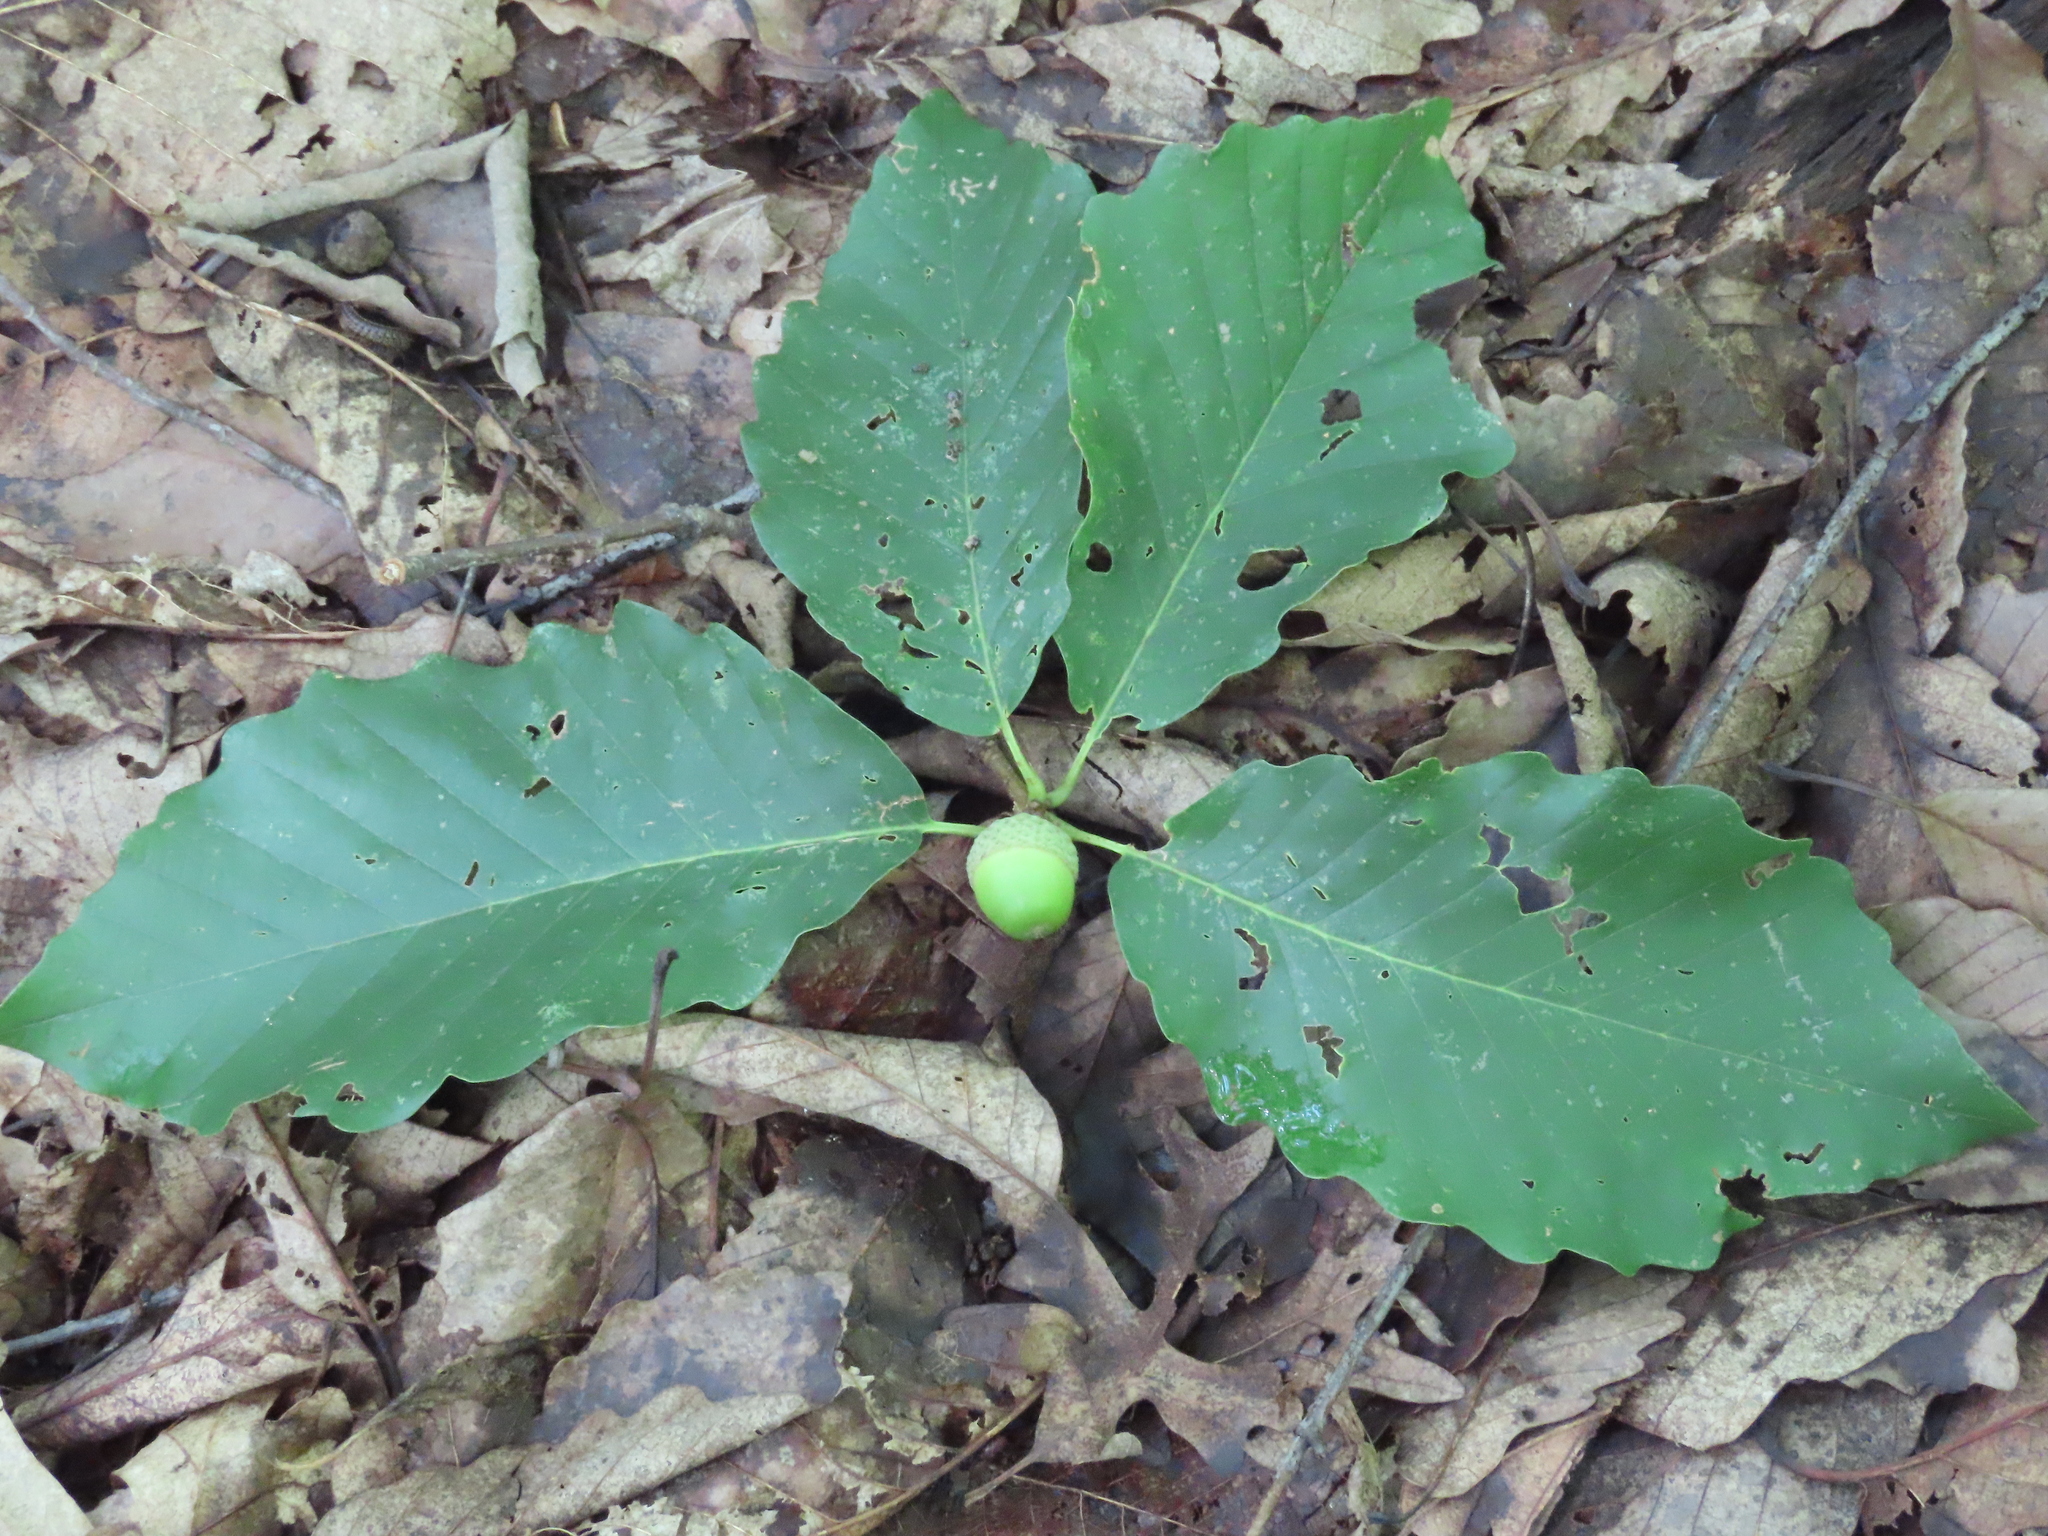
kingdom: Plantae
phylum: Tracheophyta
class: Magnoliopsida
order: Fagales
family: Fagaceae
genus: Quercus
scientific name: Quercus montana
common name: Chestnut oak
